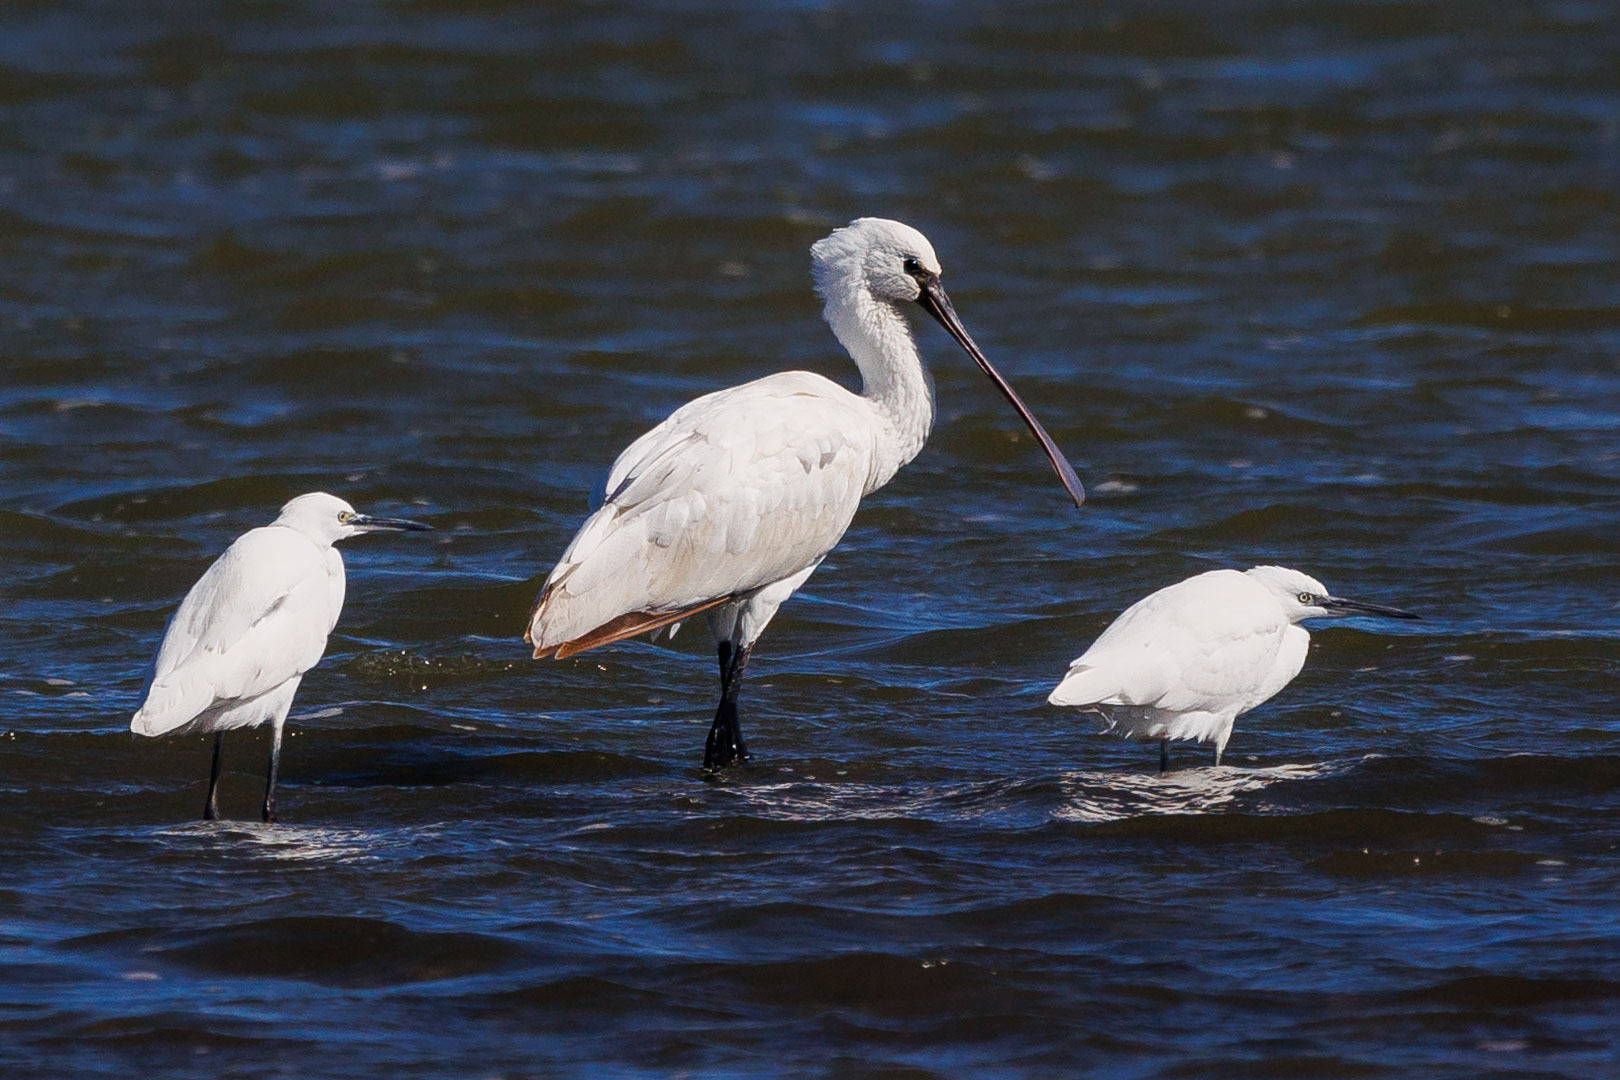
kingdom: Animalia
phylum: Chordata
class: Aves
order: Pelecaniformes
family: Threskiornithidae
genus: Platalea
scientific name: Platalea leucorodia
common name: Eurasian spoonbill
